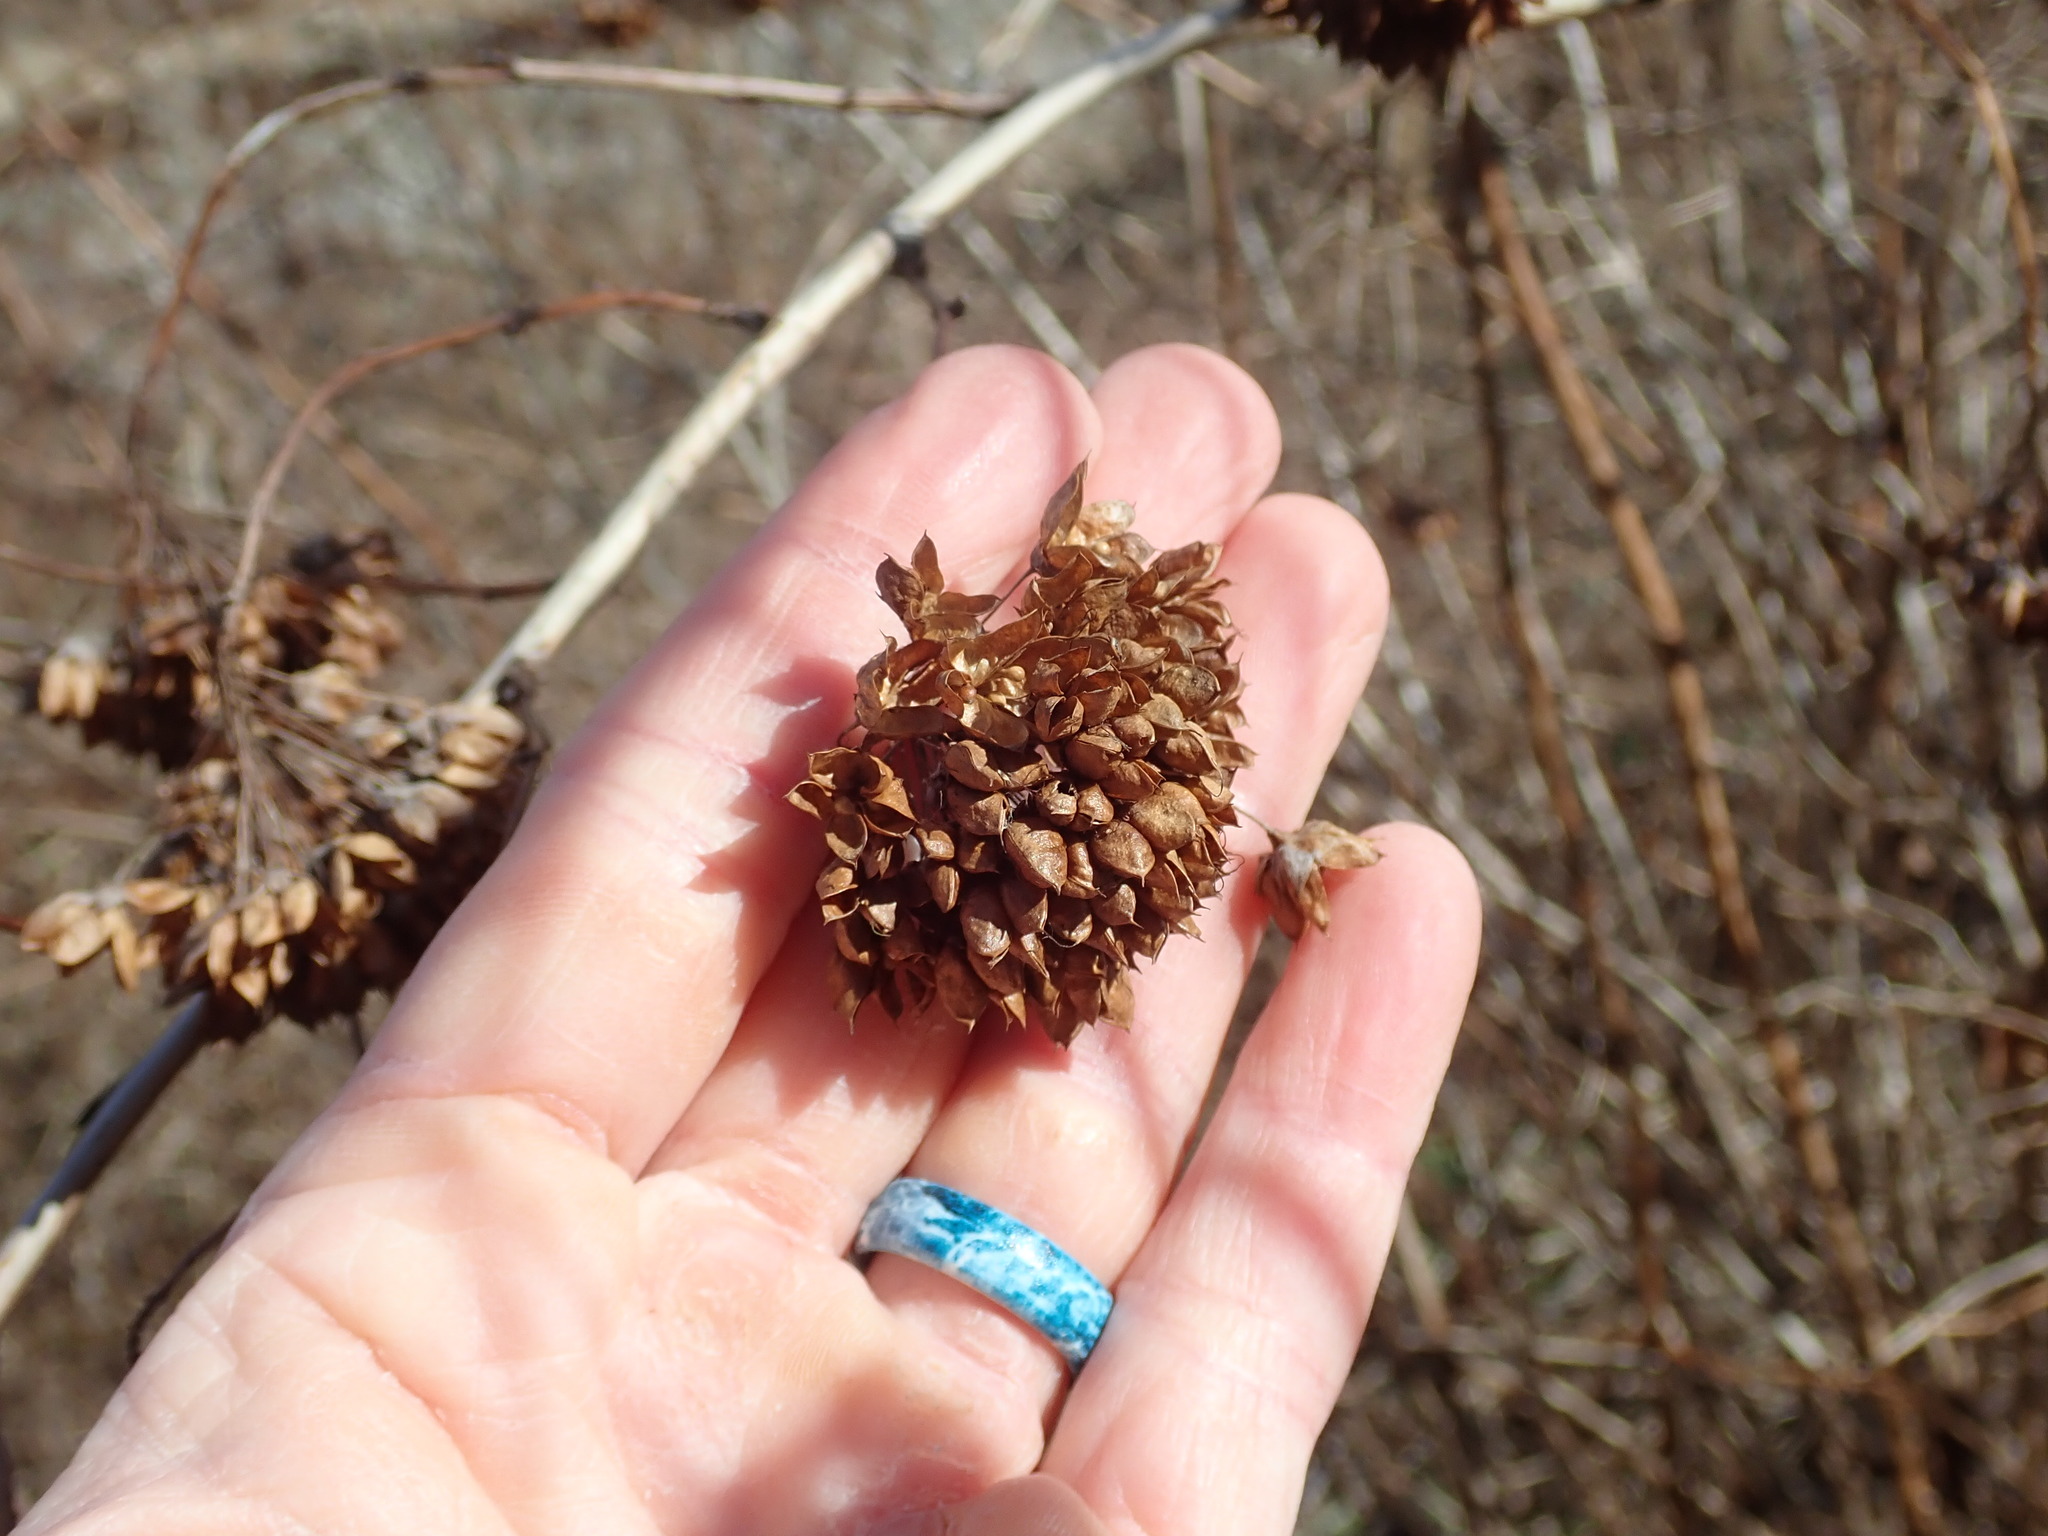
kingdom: Plantae
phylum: Tracheophyta
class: Magnoliopsida
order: Rosales
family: Rosaceae
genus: Physocarpus
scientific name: Physocarpus opulifolius
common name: Ninebark
